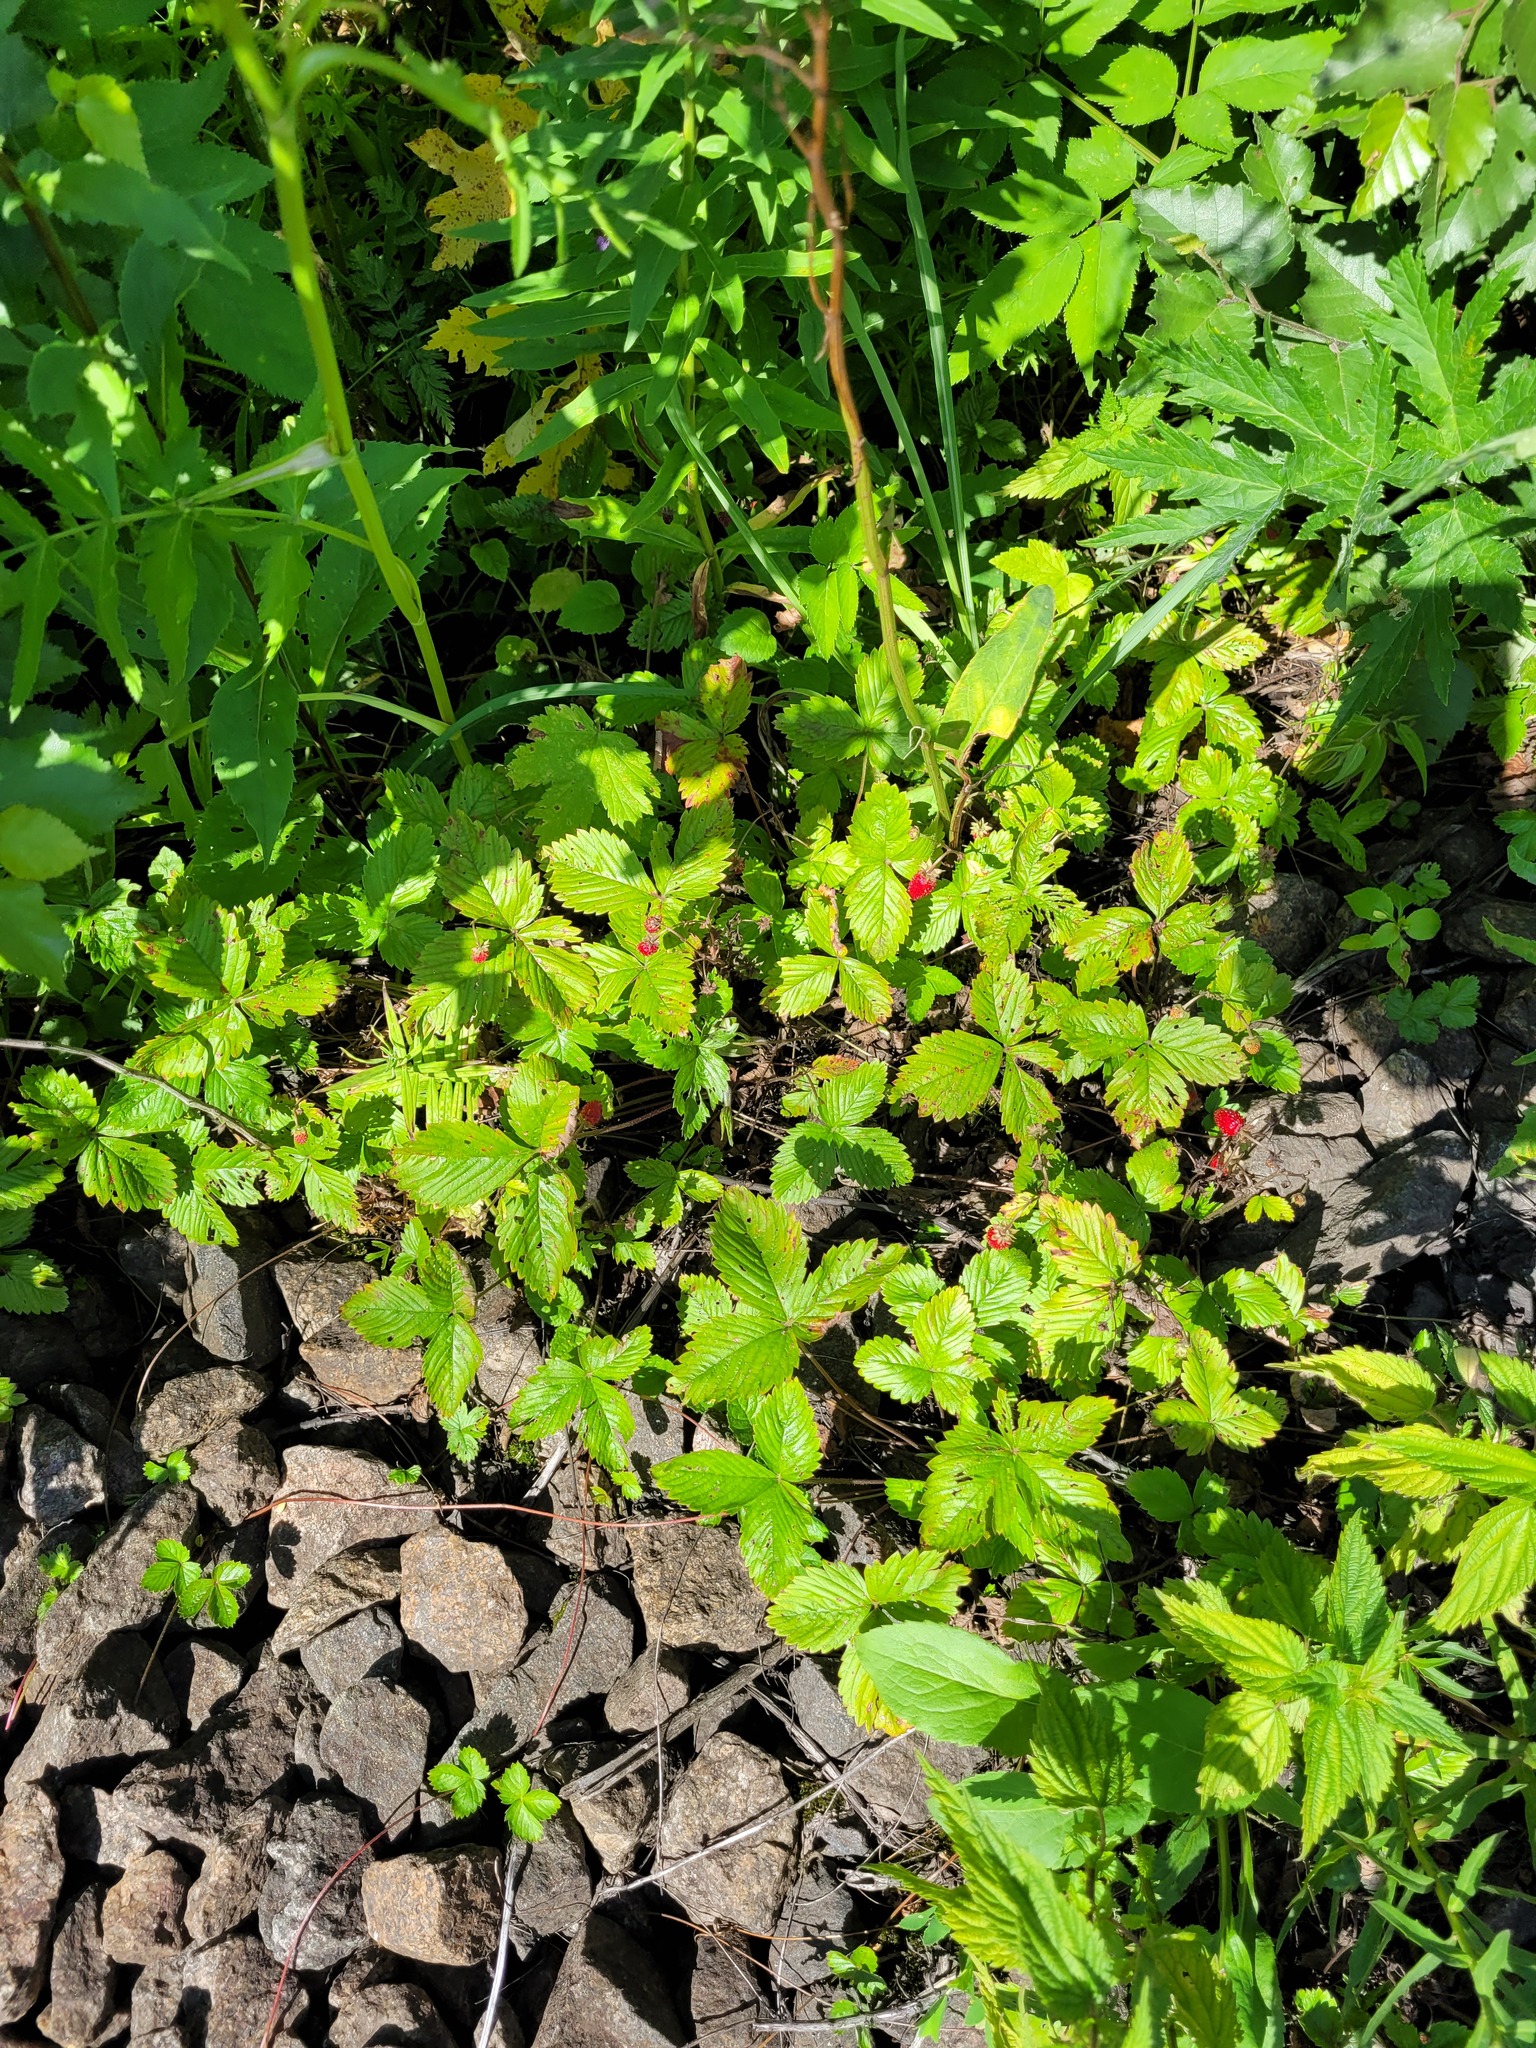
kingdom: Plantae
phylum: Tracheophyta
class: Magnoliopsida
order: Rosales
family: Rosaceae
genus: Fragaria
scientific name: Fragaria vesca
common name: Wild strawberry
